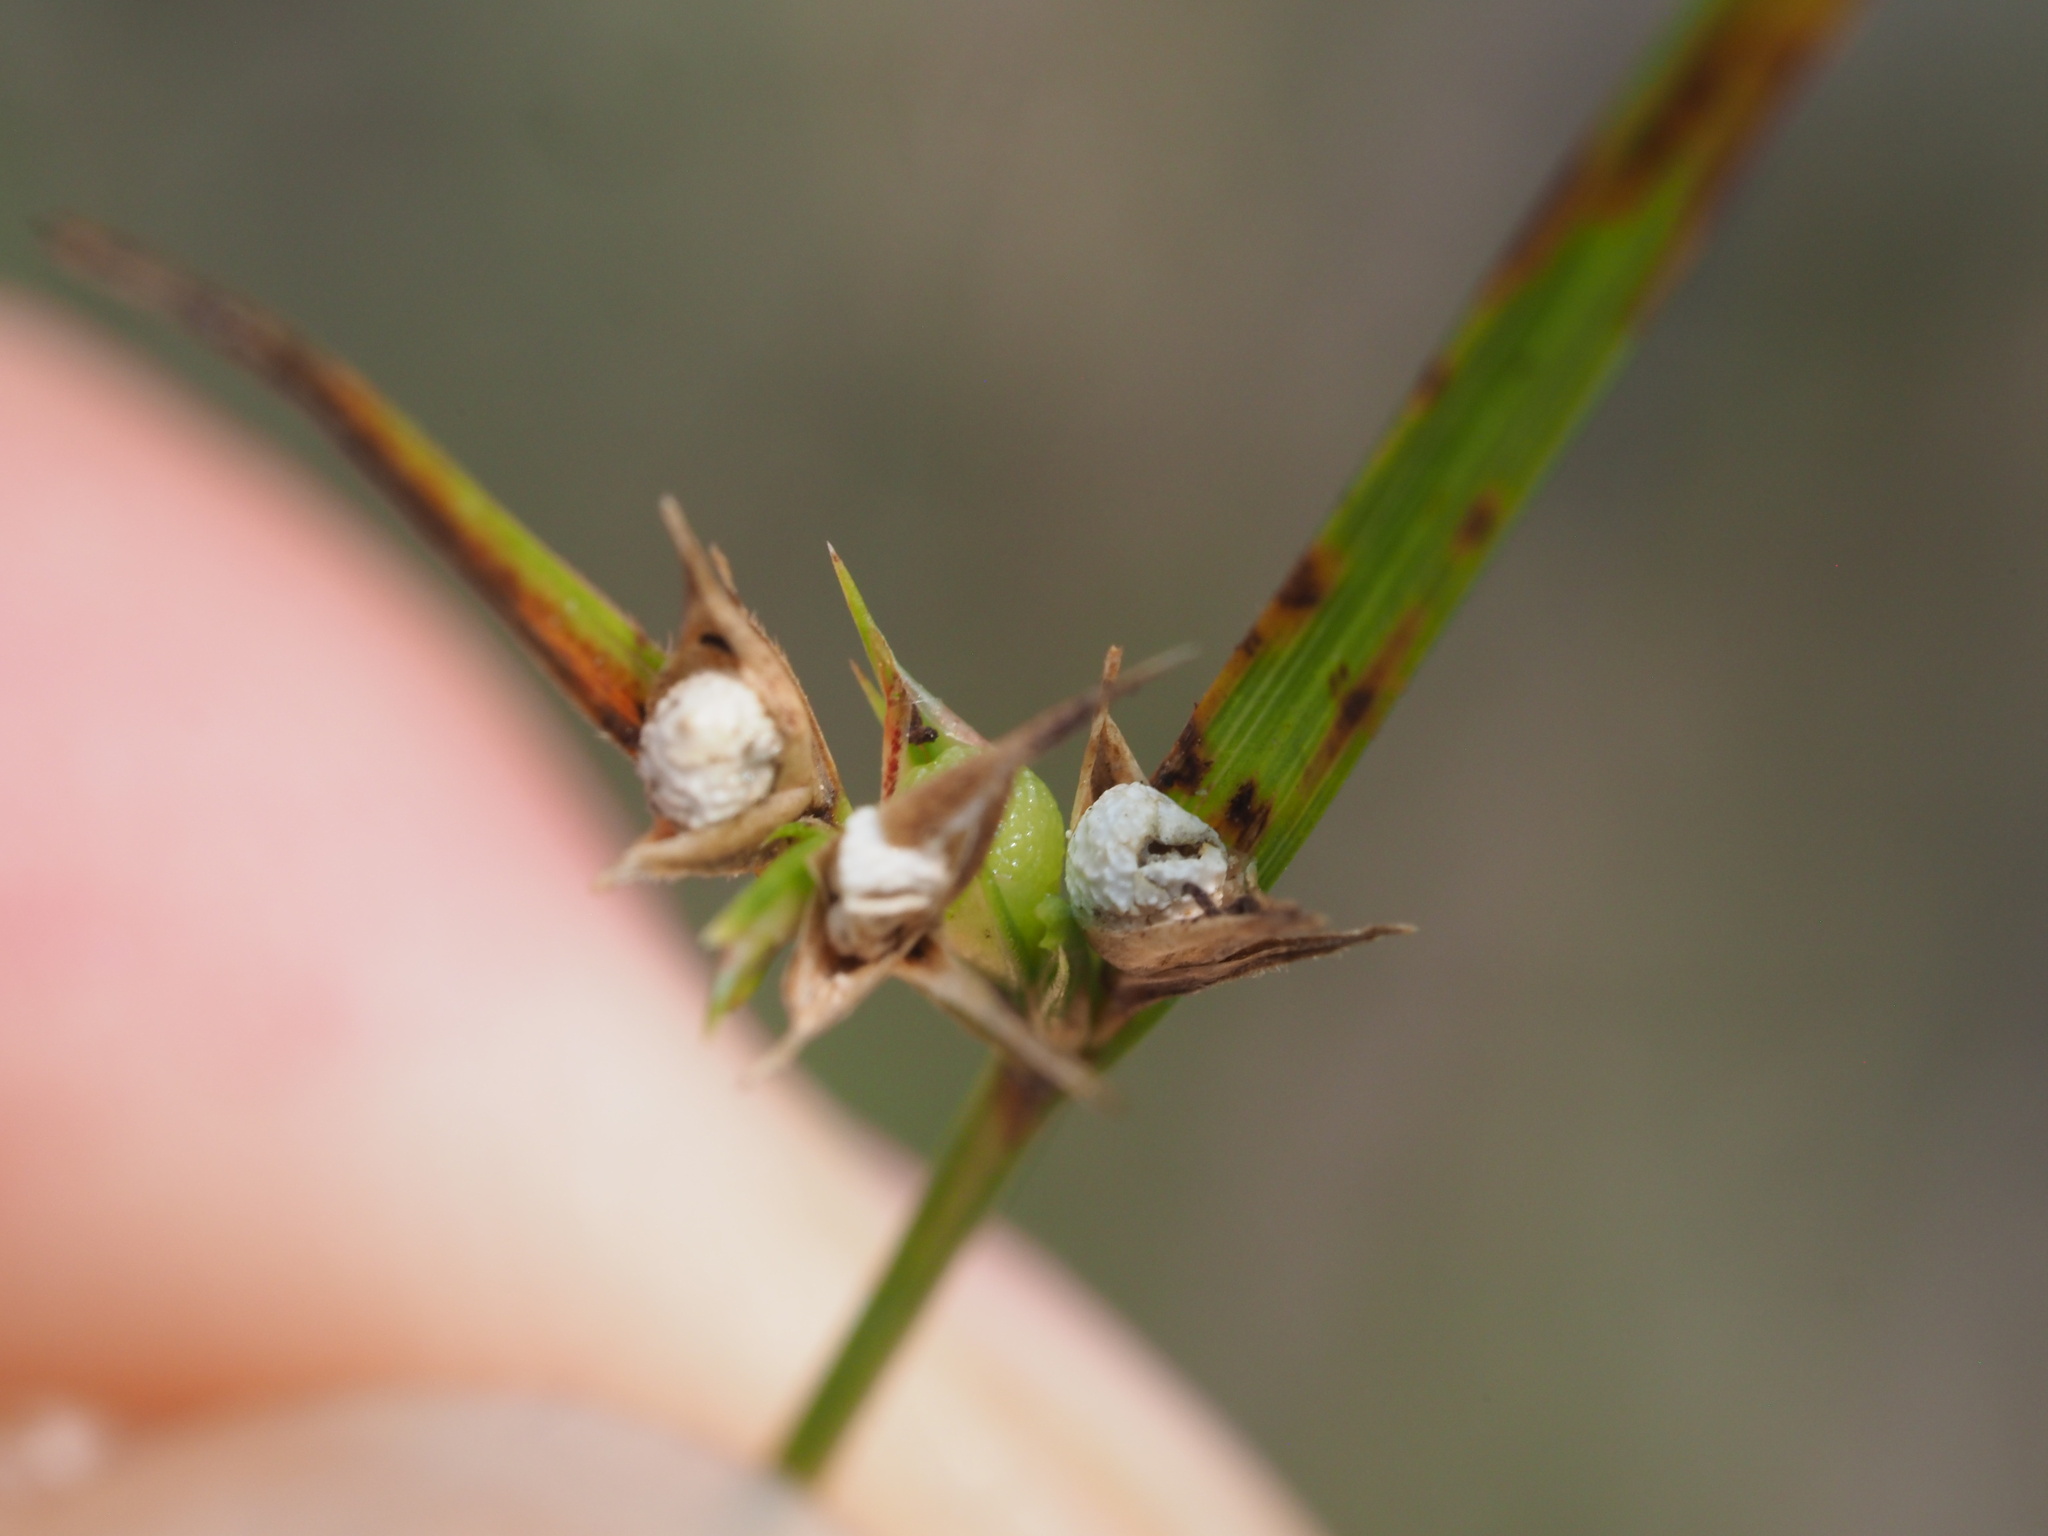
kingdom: Plantae
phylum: Tracheophyta
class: Liliopsida
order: Poales
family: Cyperaceae
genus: Scleria
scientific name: Scleria pauciflora
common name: Few-flowered nutrush
